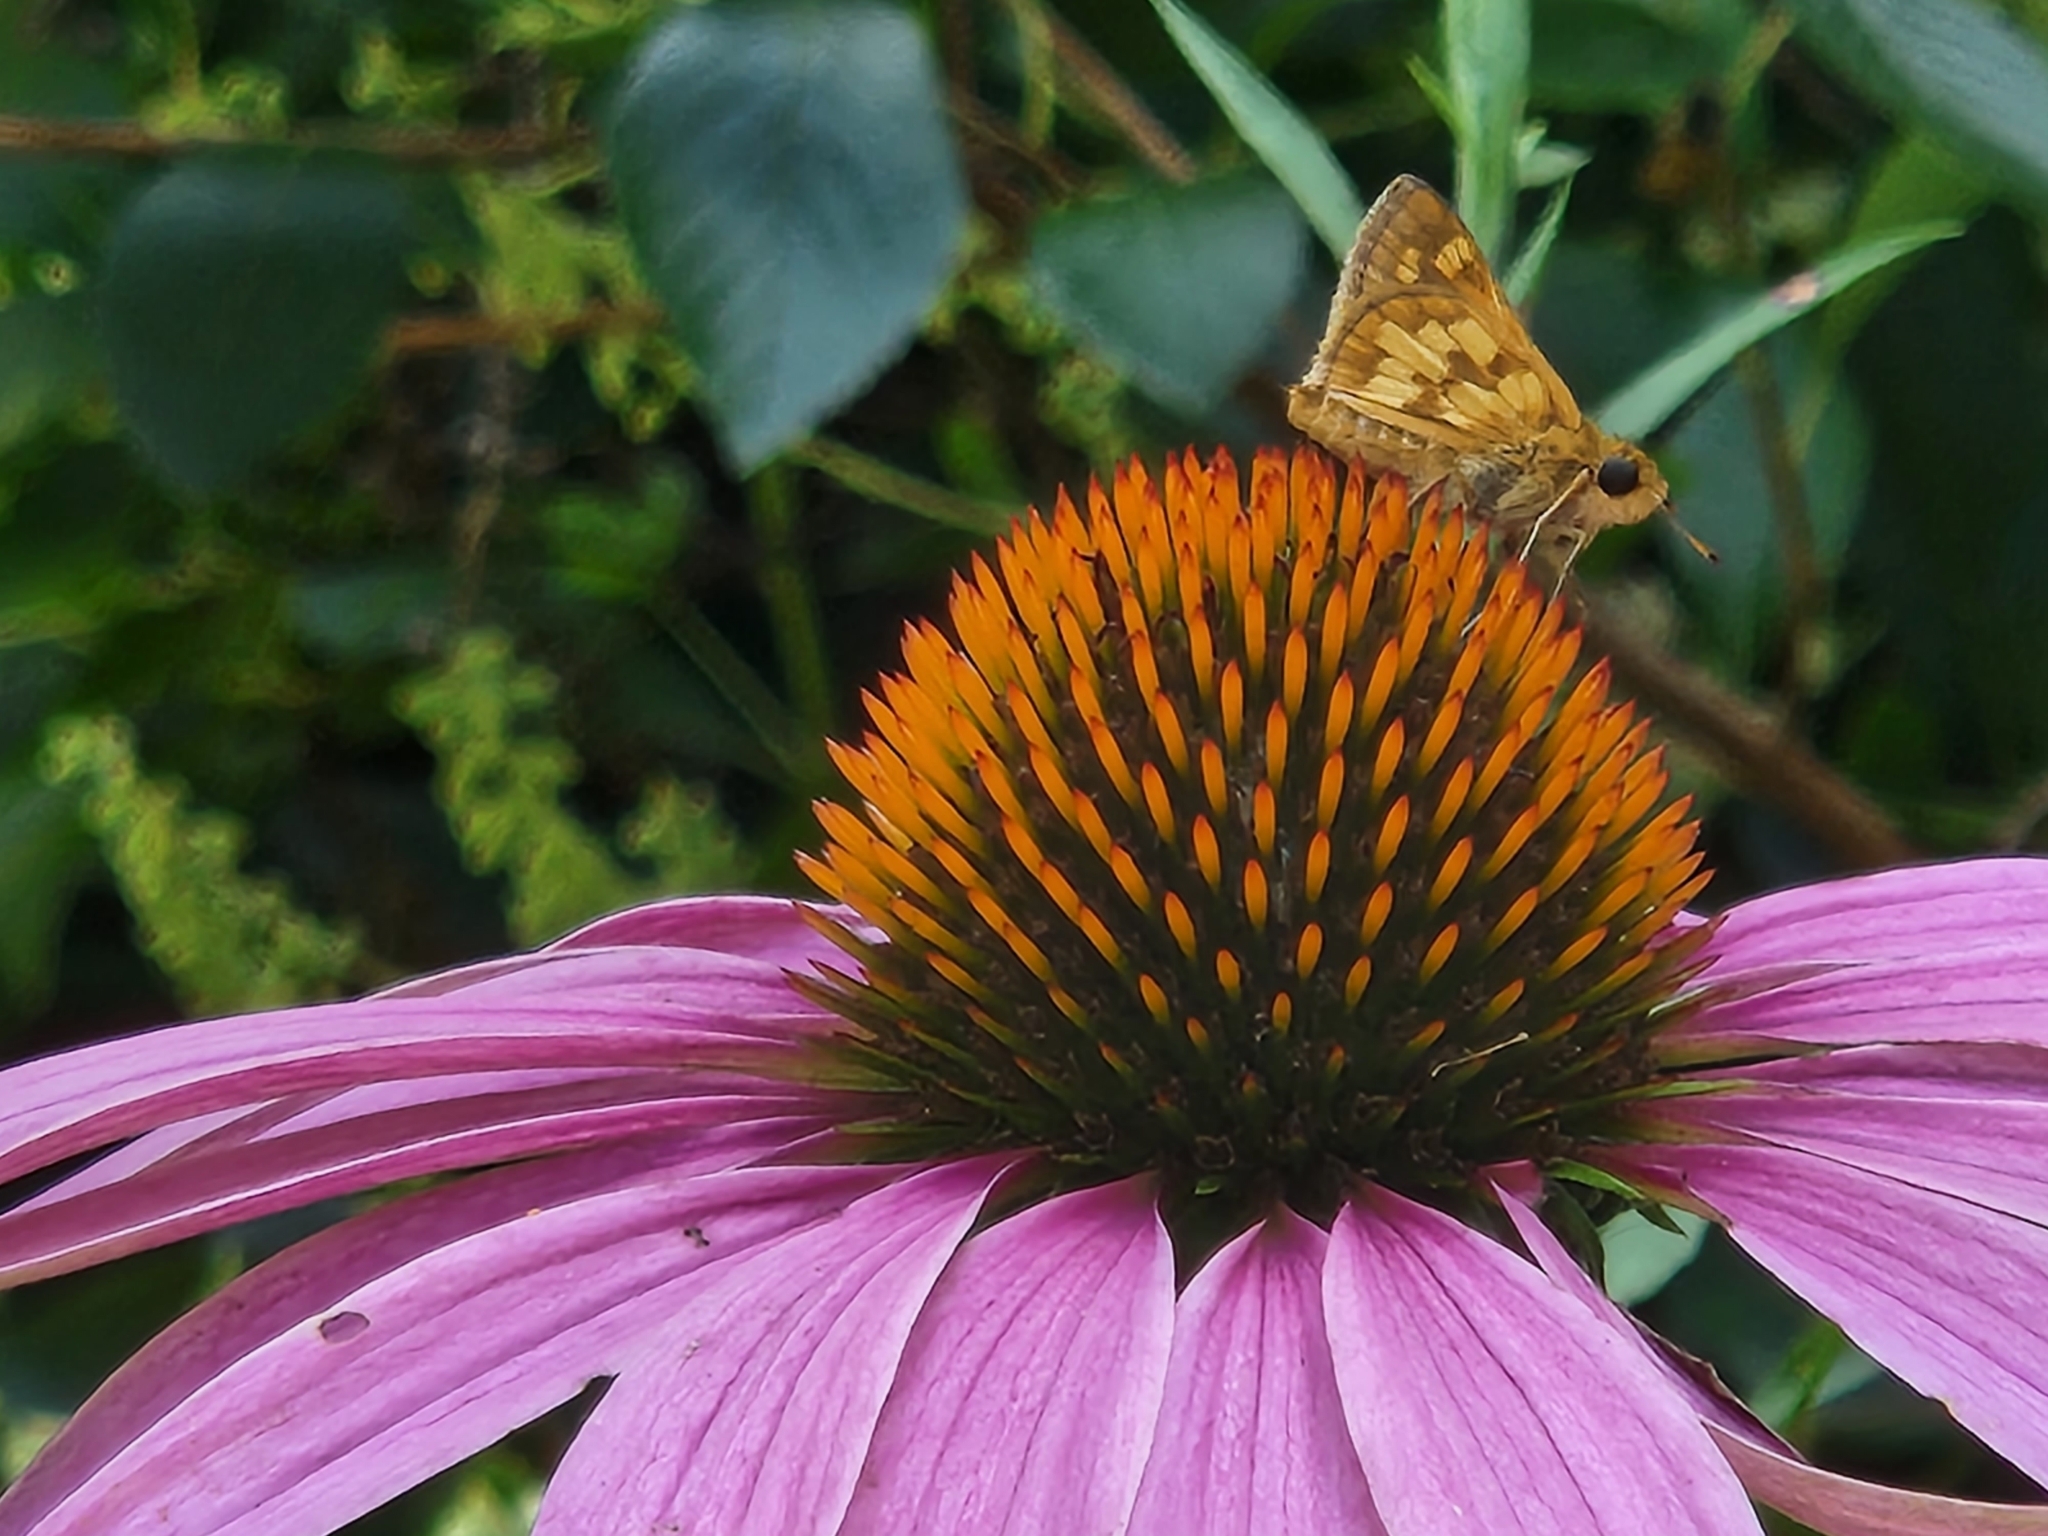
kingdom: Animalia
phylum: Arthropoda
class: Insecta
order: Lepidoptera
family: Hesperiidae
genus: Polites
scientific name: Polites coras
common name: Peck's skipper
